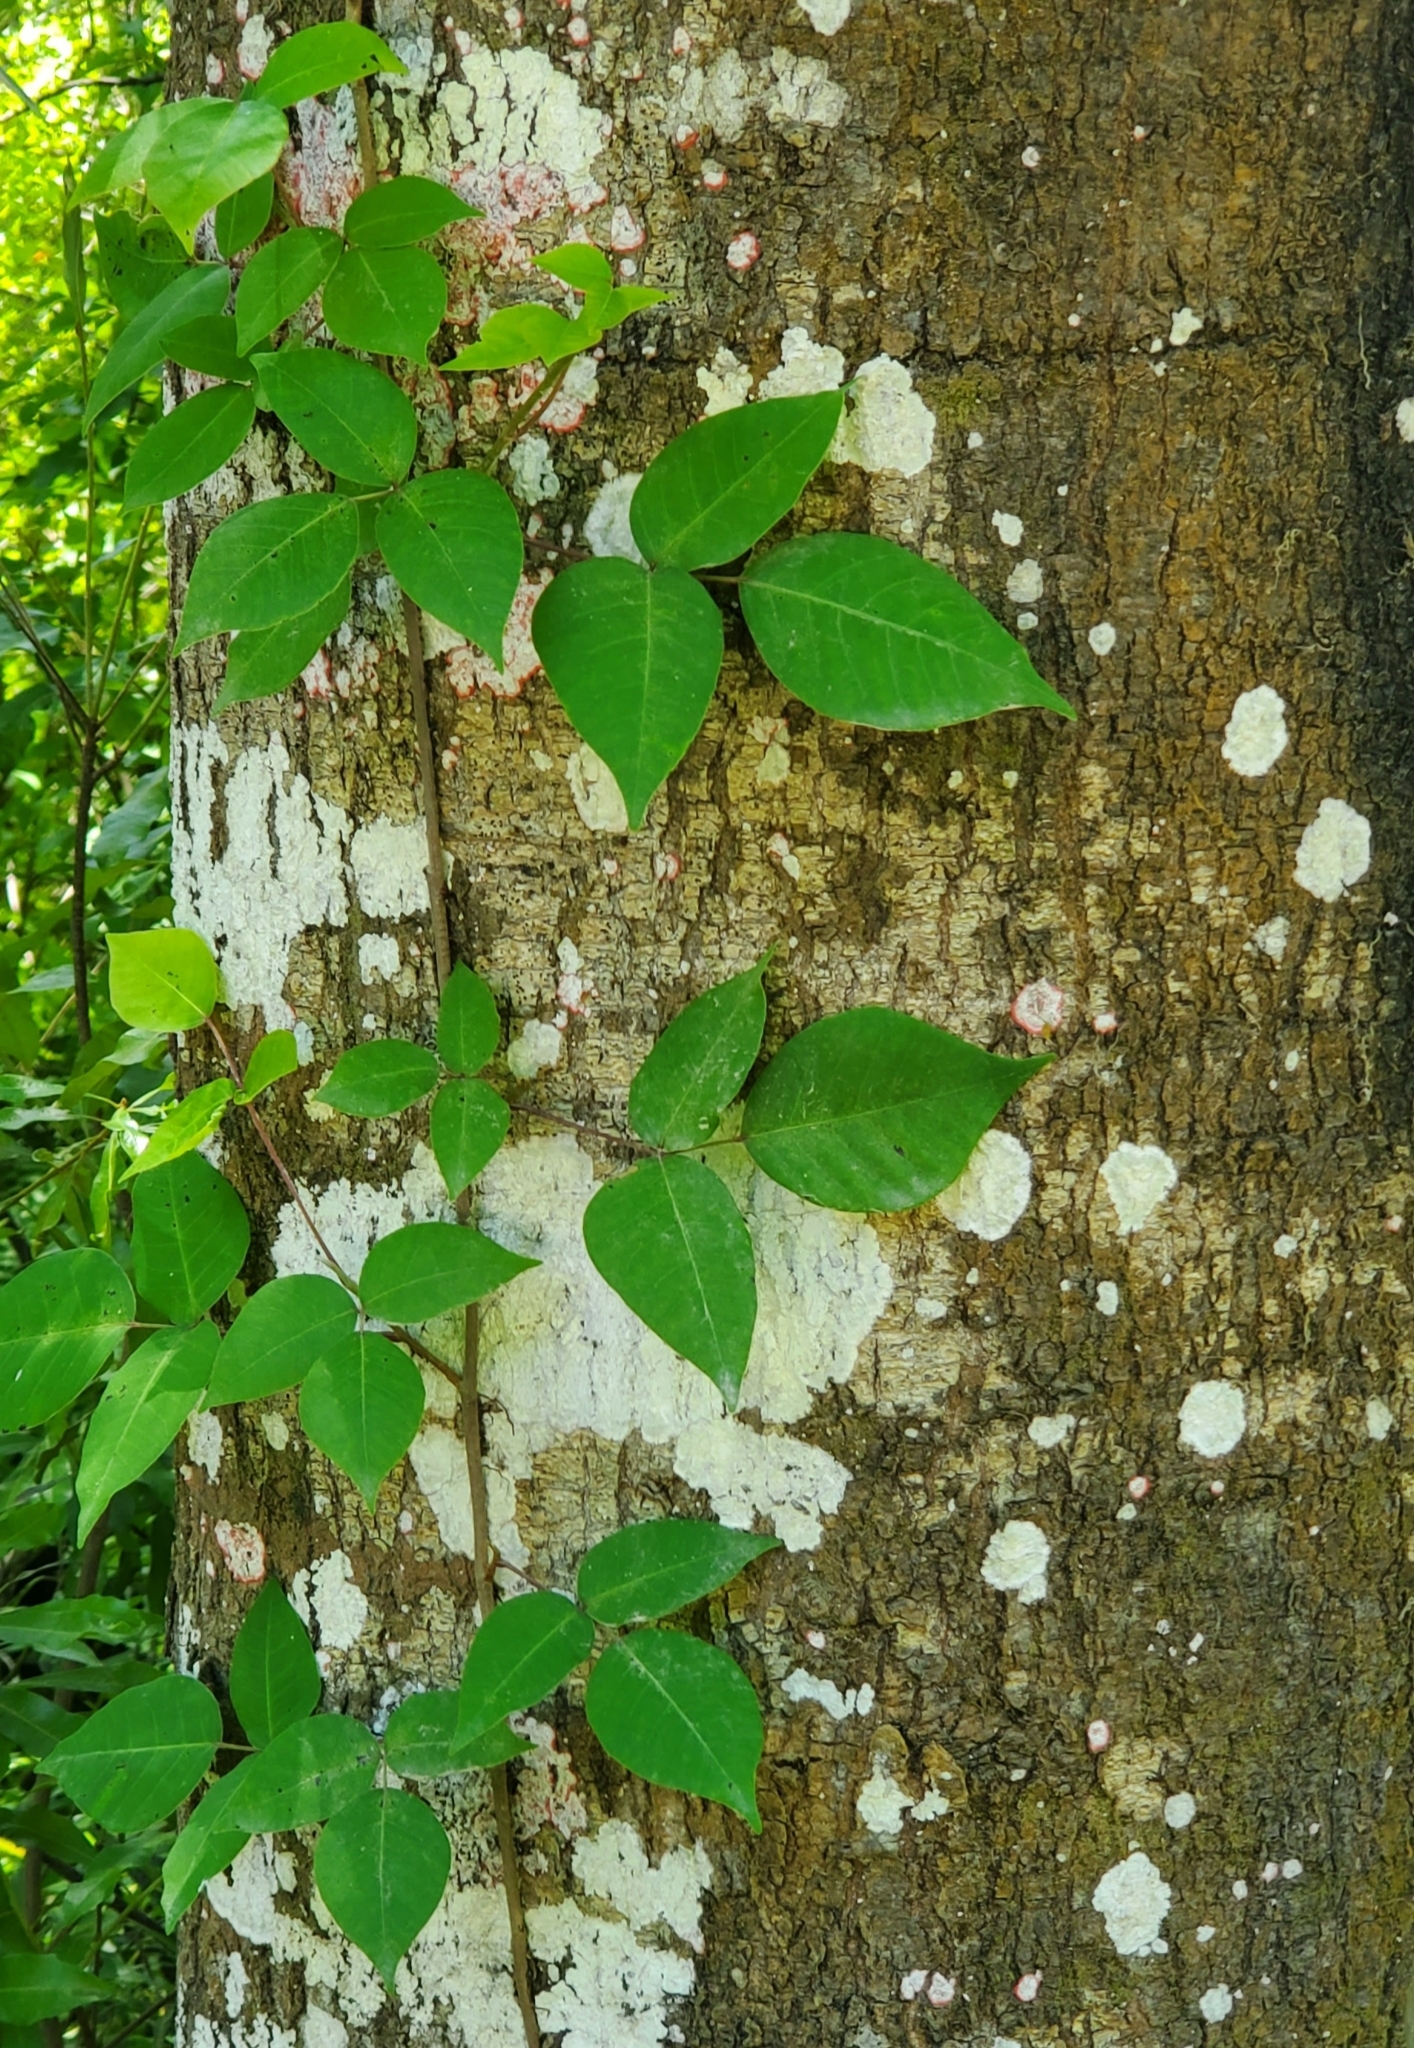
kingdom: Plantae
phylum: Tracheophyta
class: Magnoliopsida
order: Sapindales
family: Anacardiaceae
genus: Toxicodendron
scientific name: Toxicodendron radicans
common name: Poison ivy
